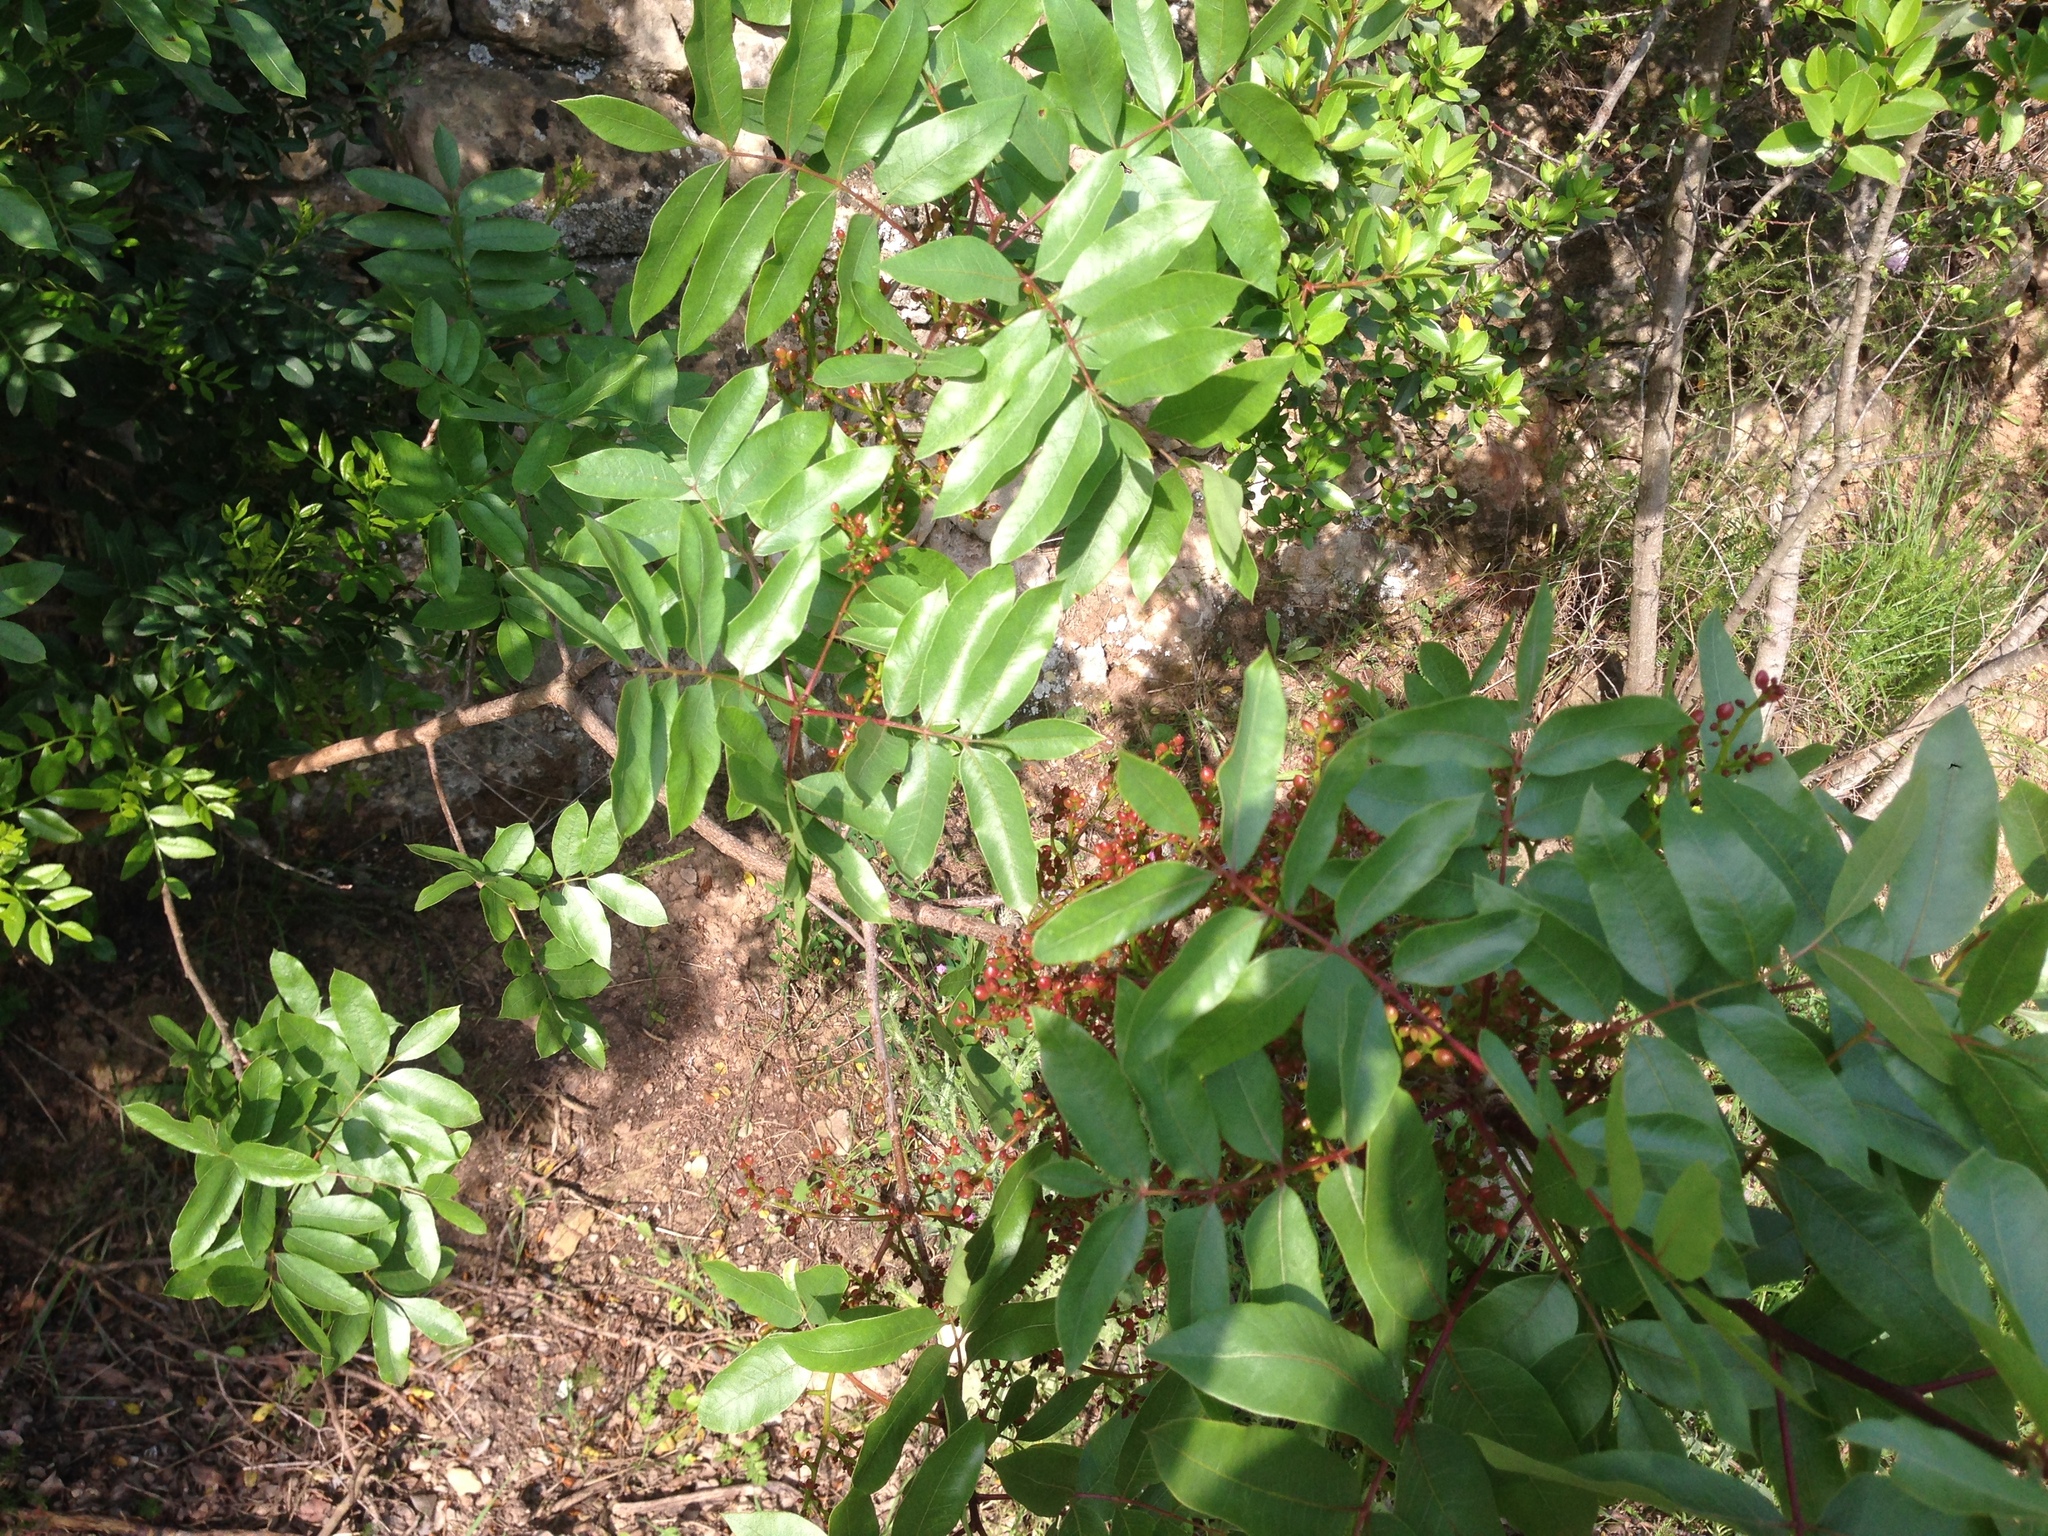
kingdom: Plantae
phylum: Tracheophyta
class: Magnoliopsida
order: Sapindales
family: Anacardiaceae
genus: Pistacia
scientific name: Pistacia terebinthus
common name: Terebinth
